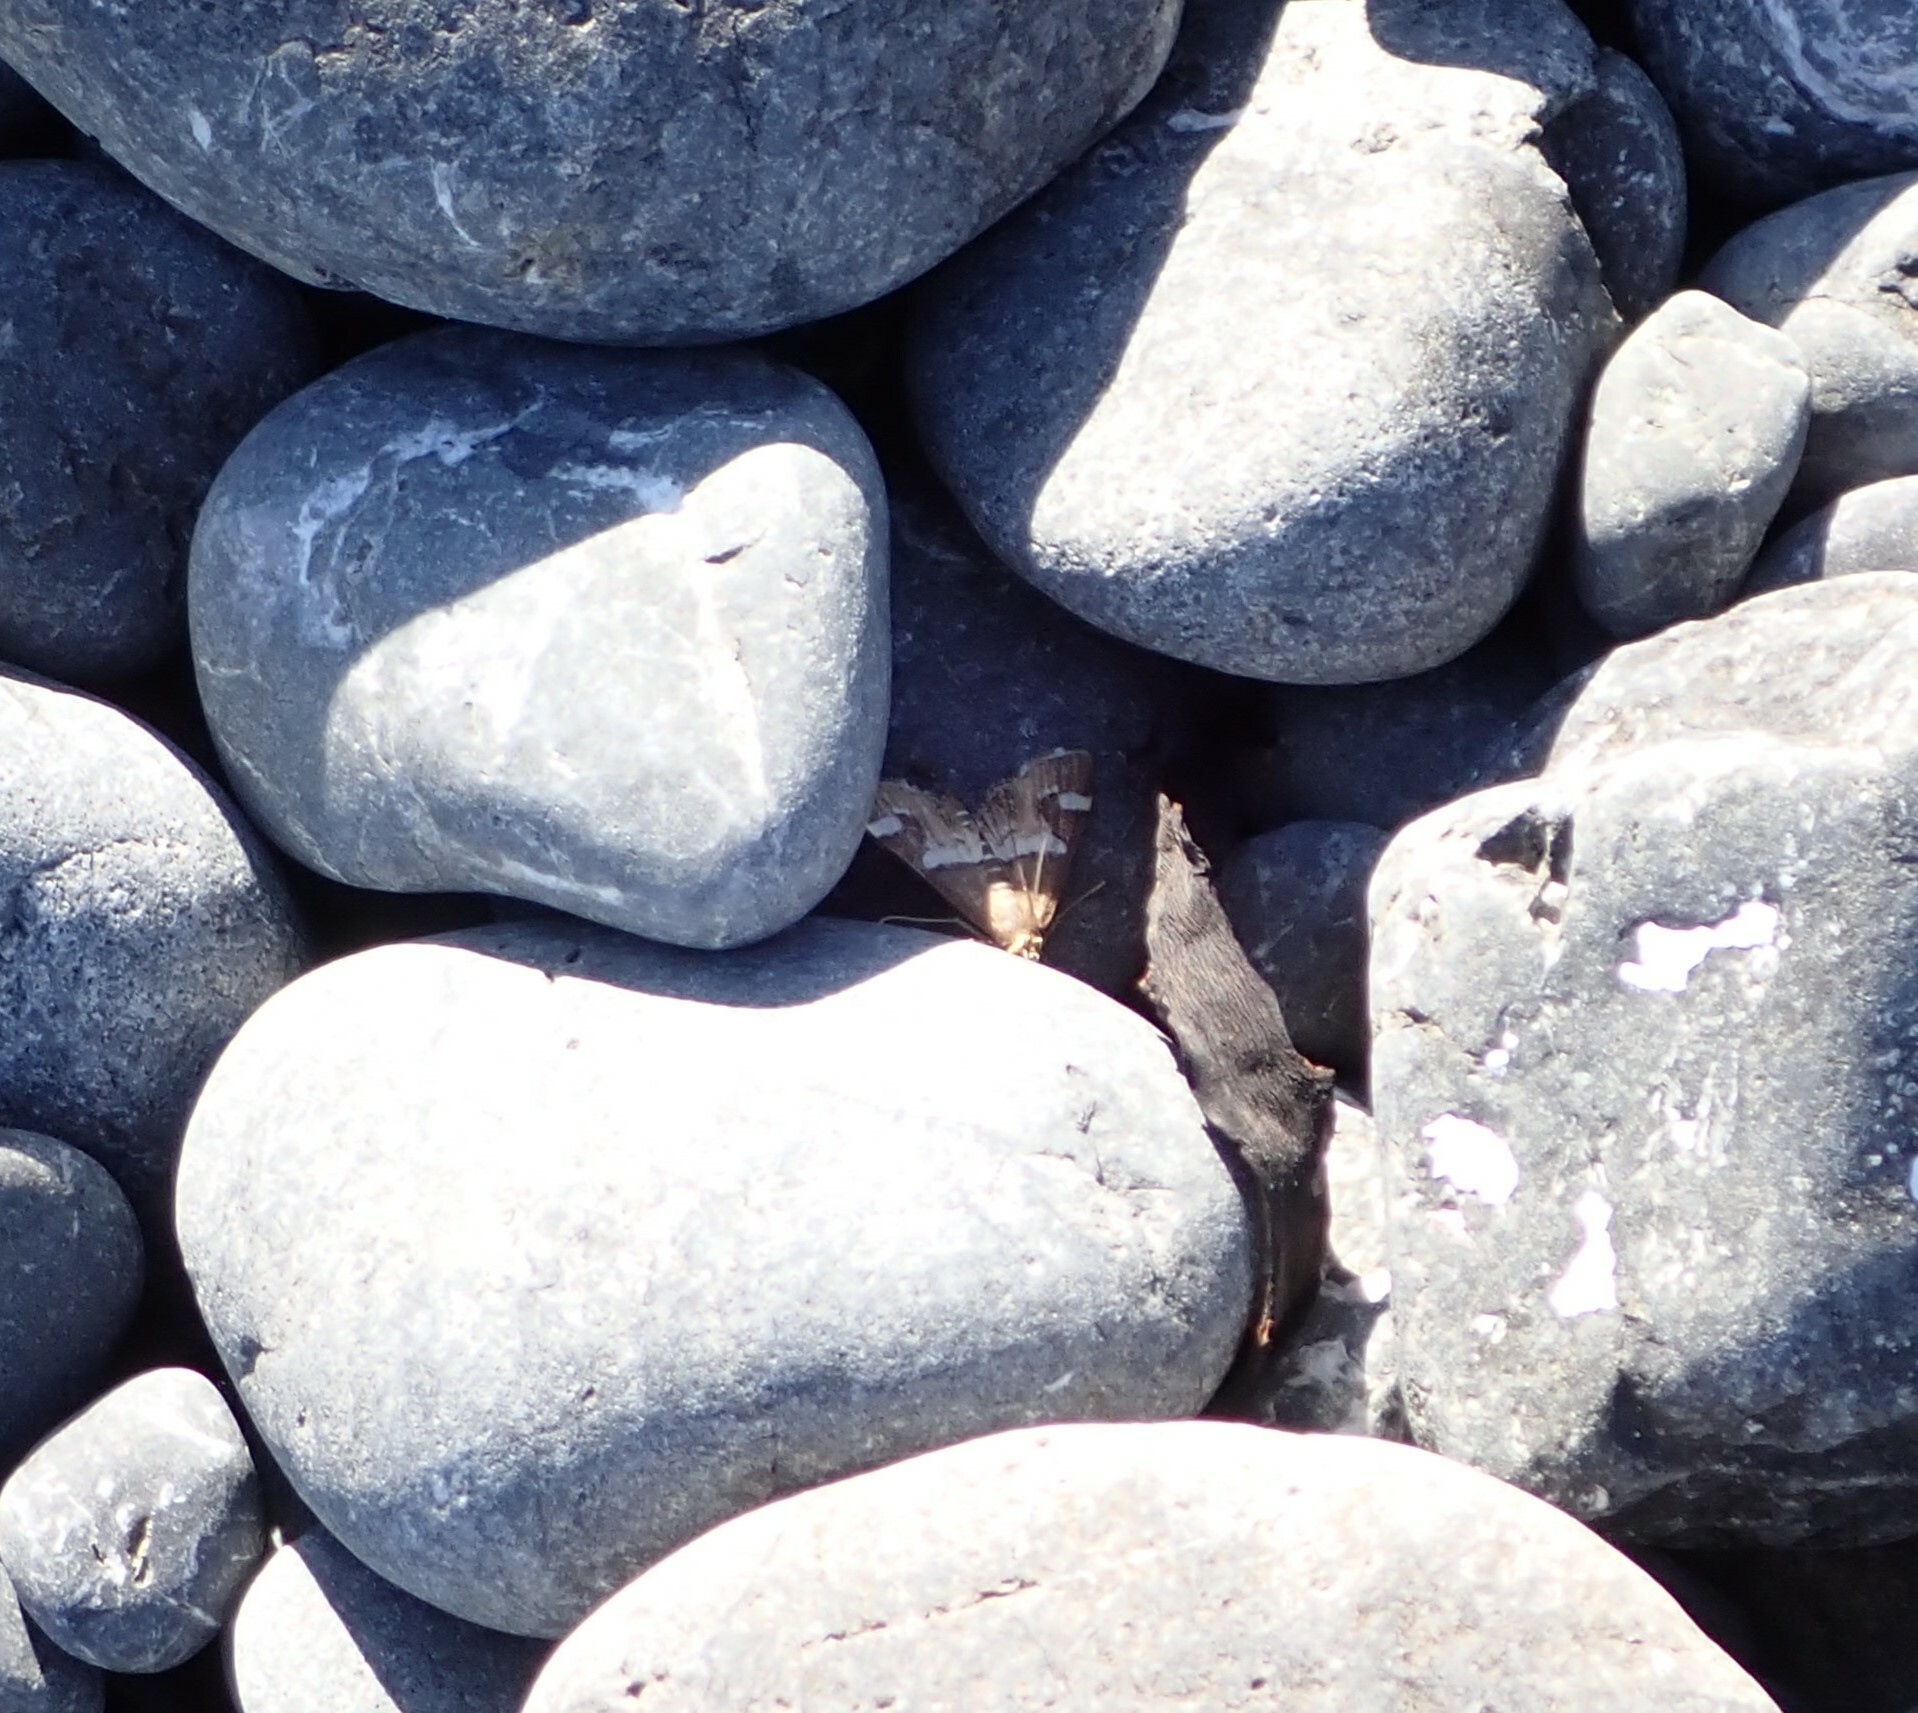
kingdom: Animalia
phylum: Arthropoda
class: Insecta
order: Lepidoptera
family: Crambidae
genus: Spoladea
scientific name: Spoladea recurvalis
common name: Beet webworm moth
